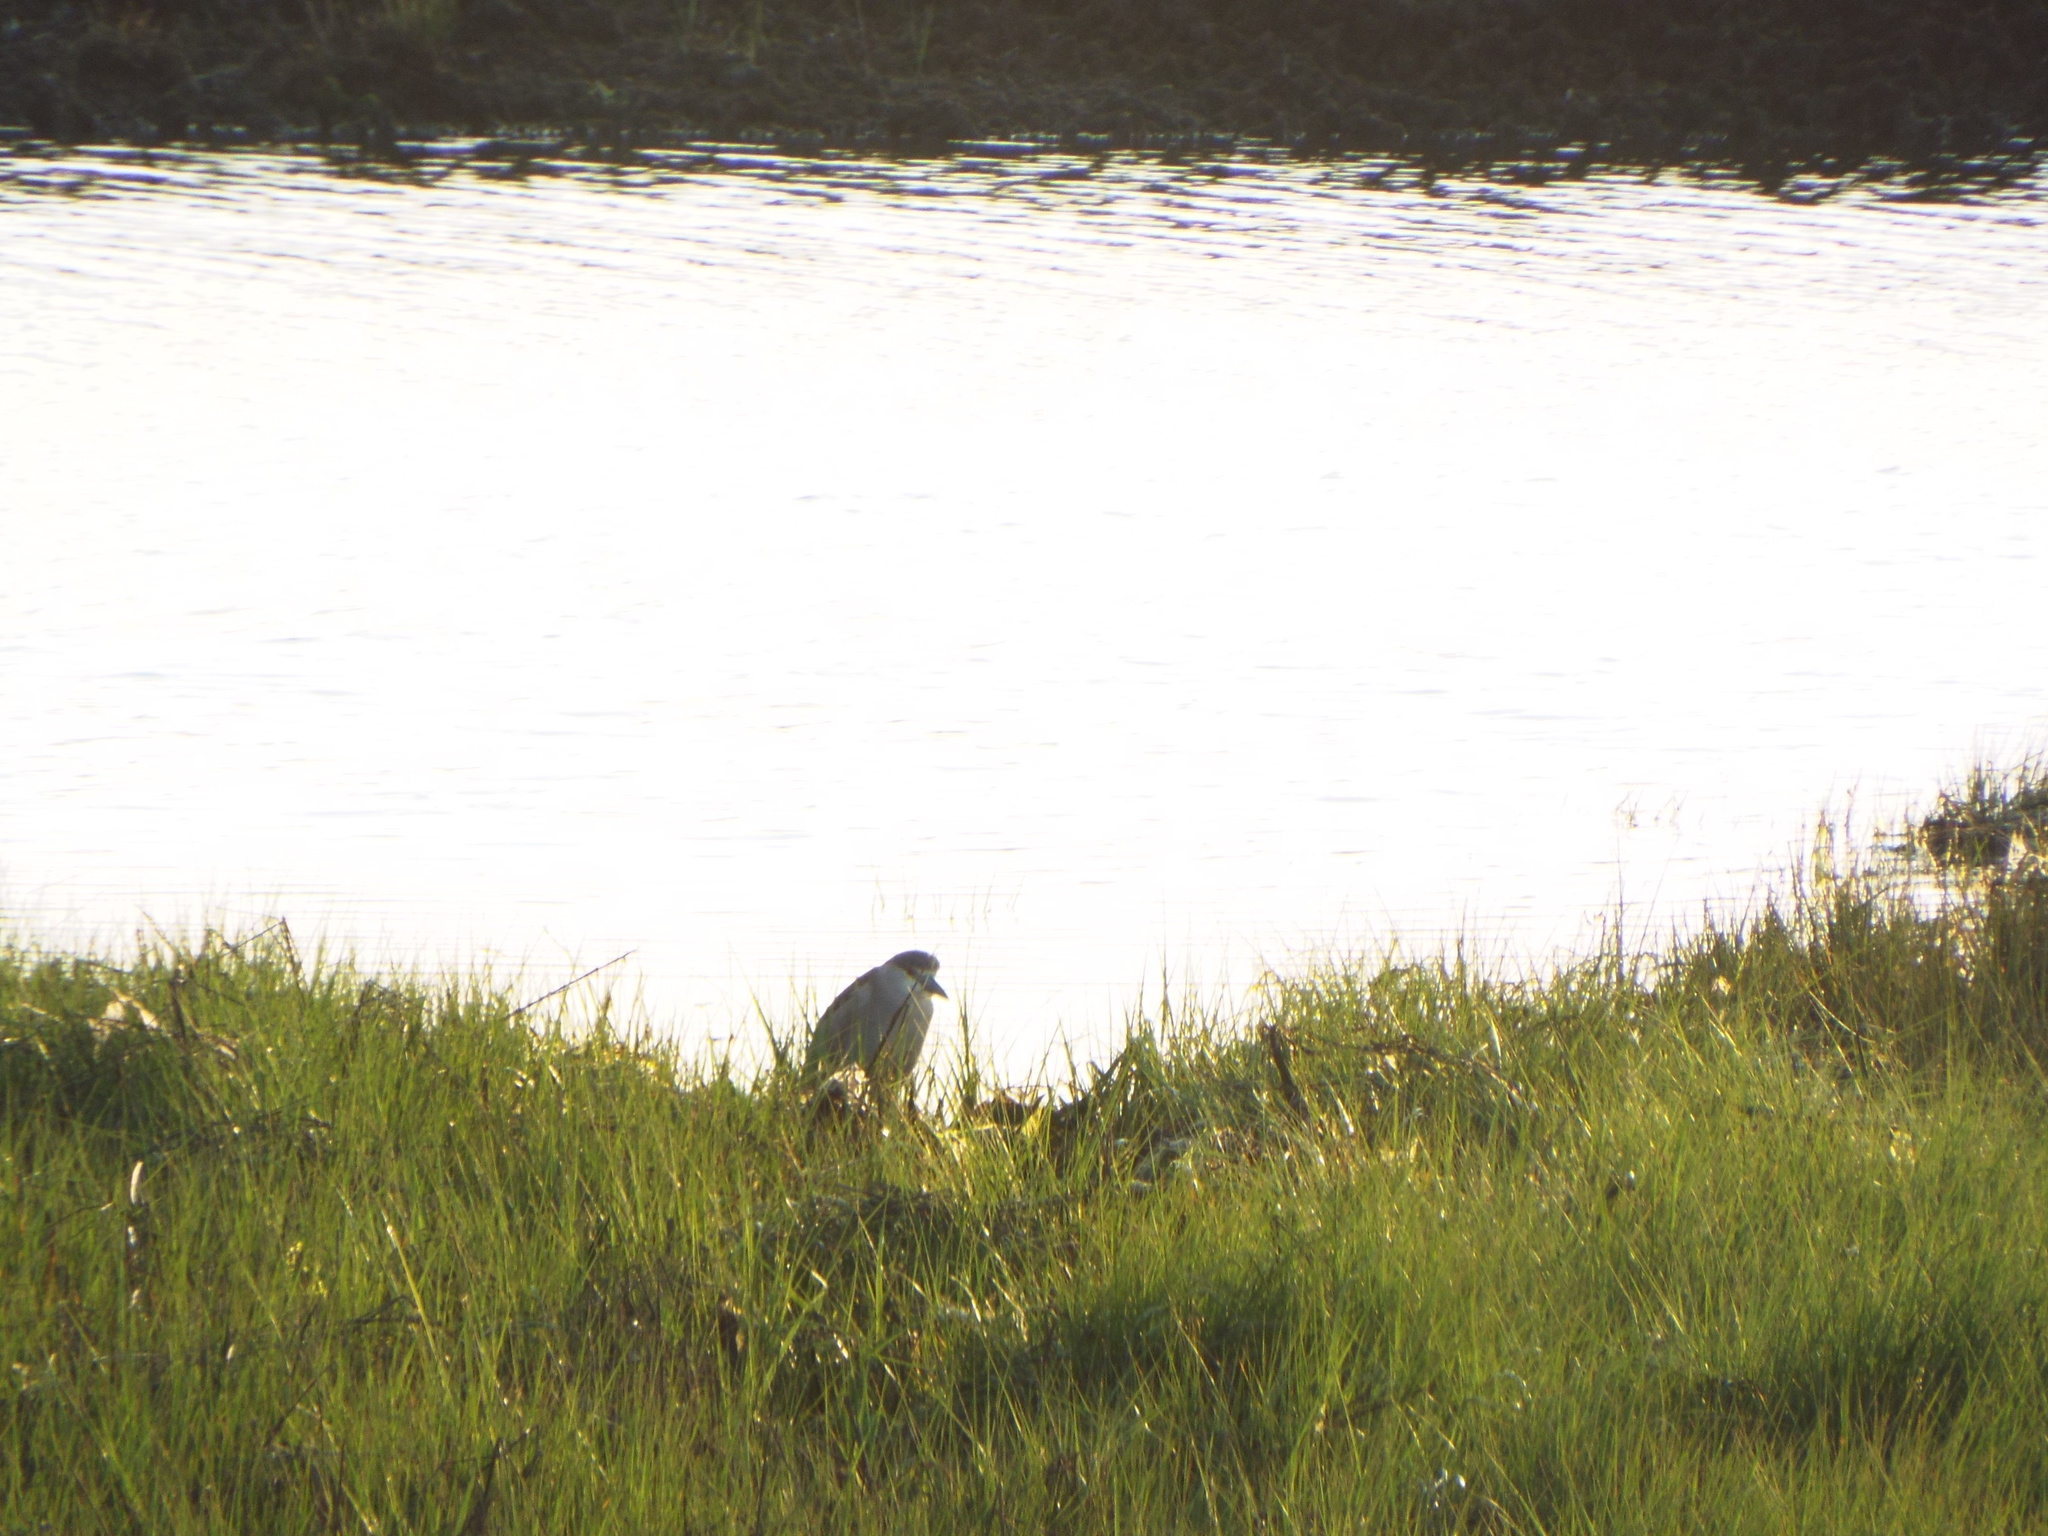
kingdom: Animalia
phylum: Chordata
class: Aves
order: Pelecaniformes
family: Ardeidae
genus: Nycticorax
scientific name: Nycticorax nycticorax
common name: Black-crowned night heron
